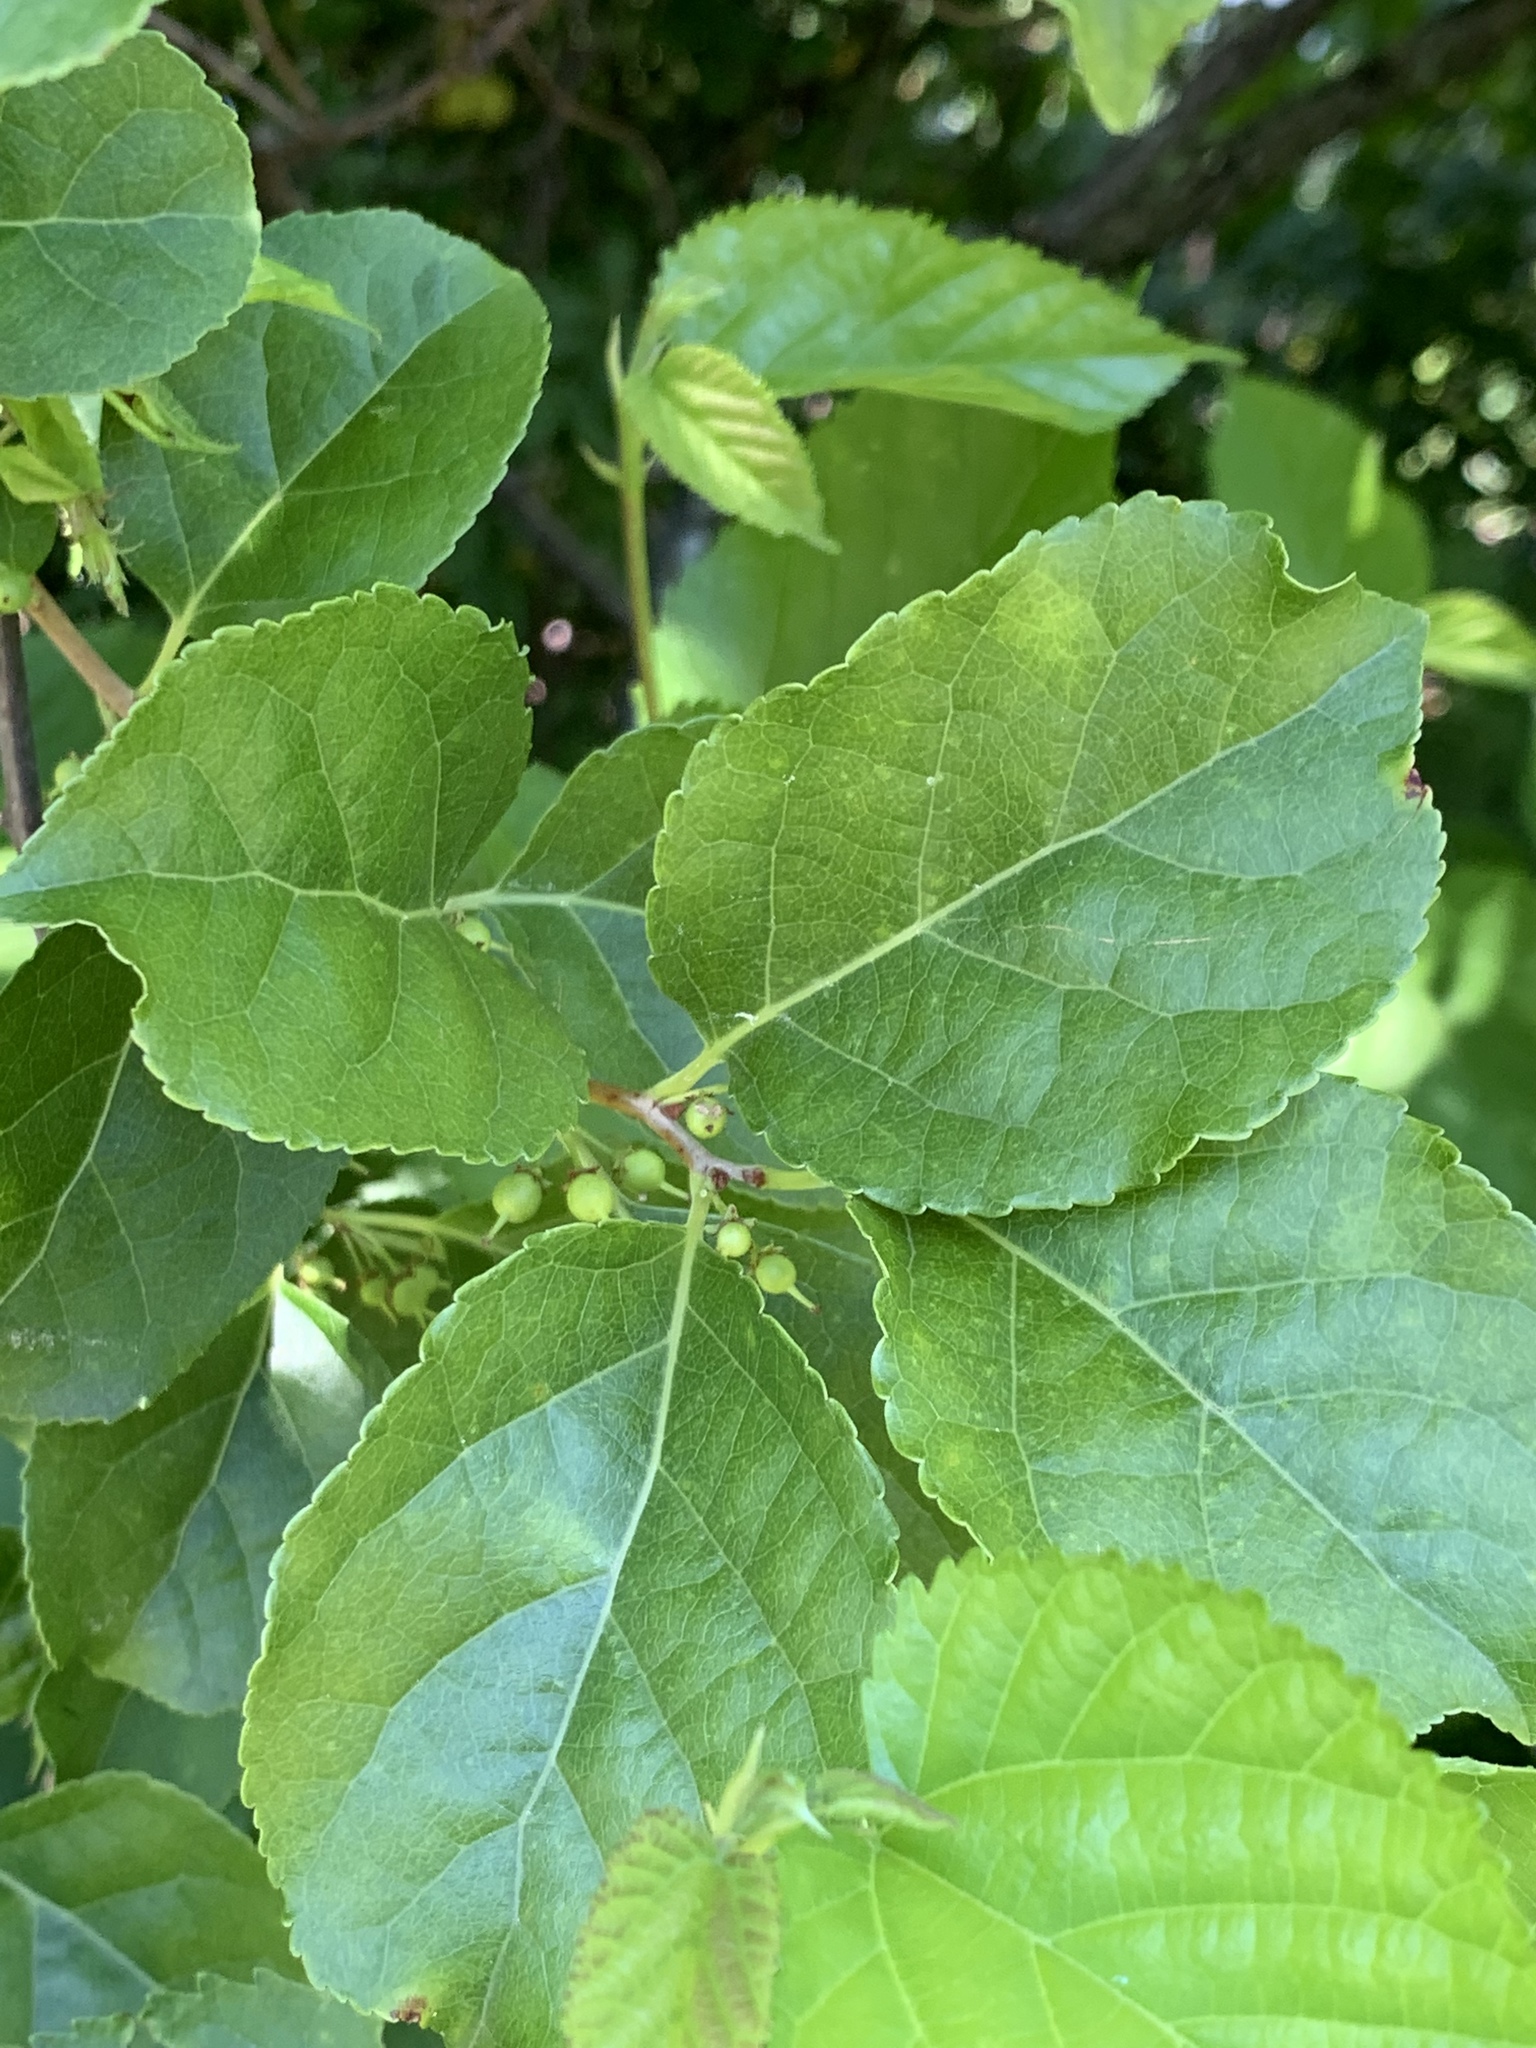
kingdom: Plantae
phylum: Tracheophyta
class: Magnoliopsida
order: Celastrales
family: Celastraceae
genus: Celastrus
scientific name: Celastrus orbiculatus
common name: Oriental bittersweet
